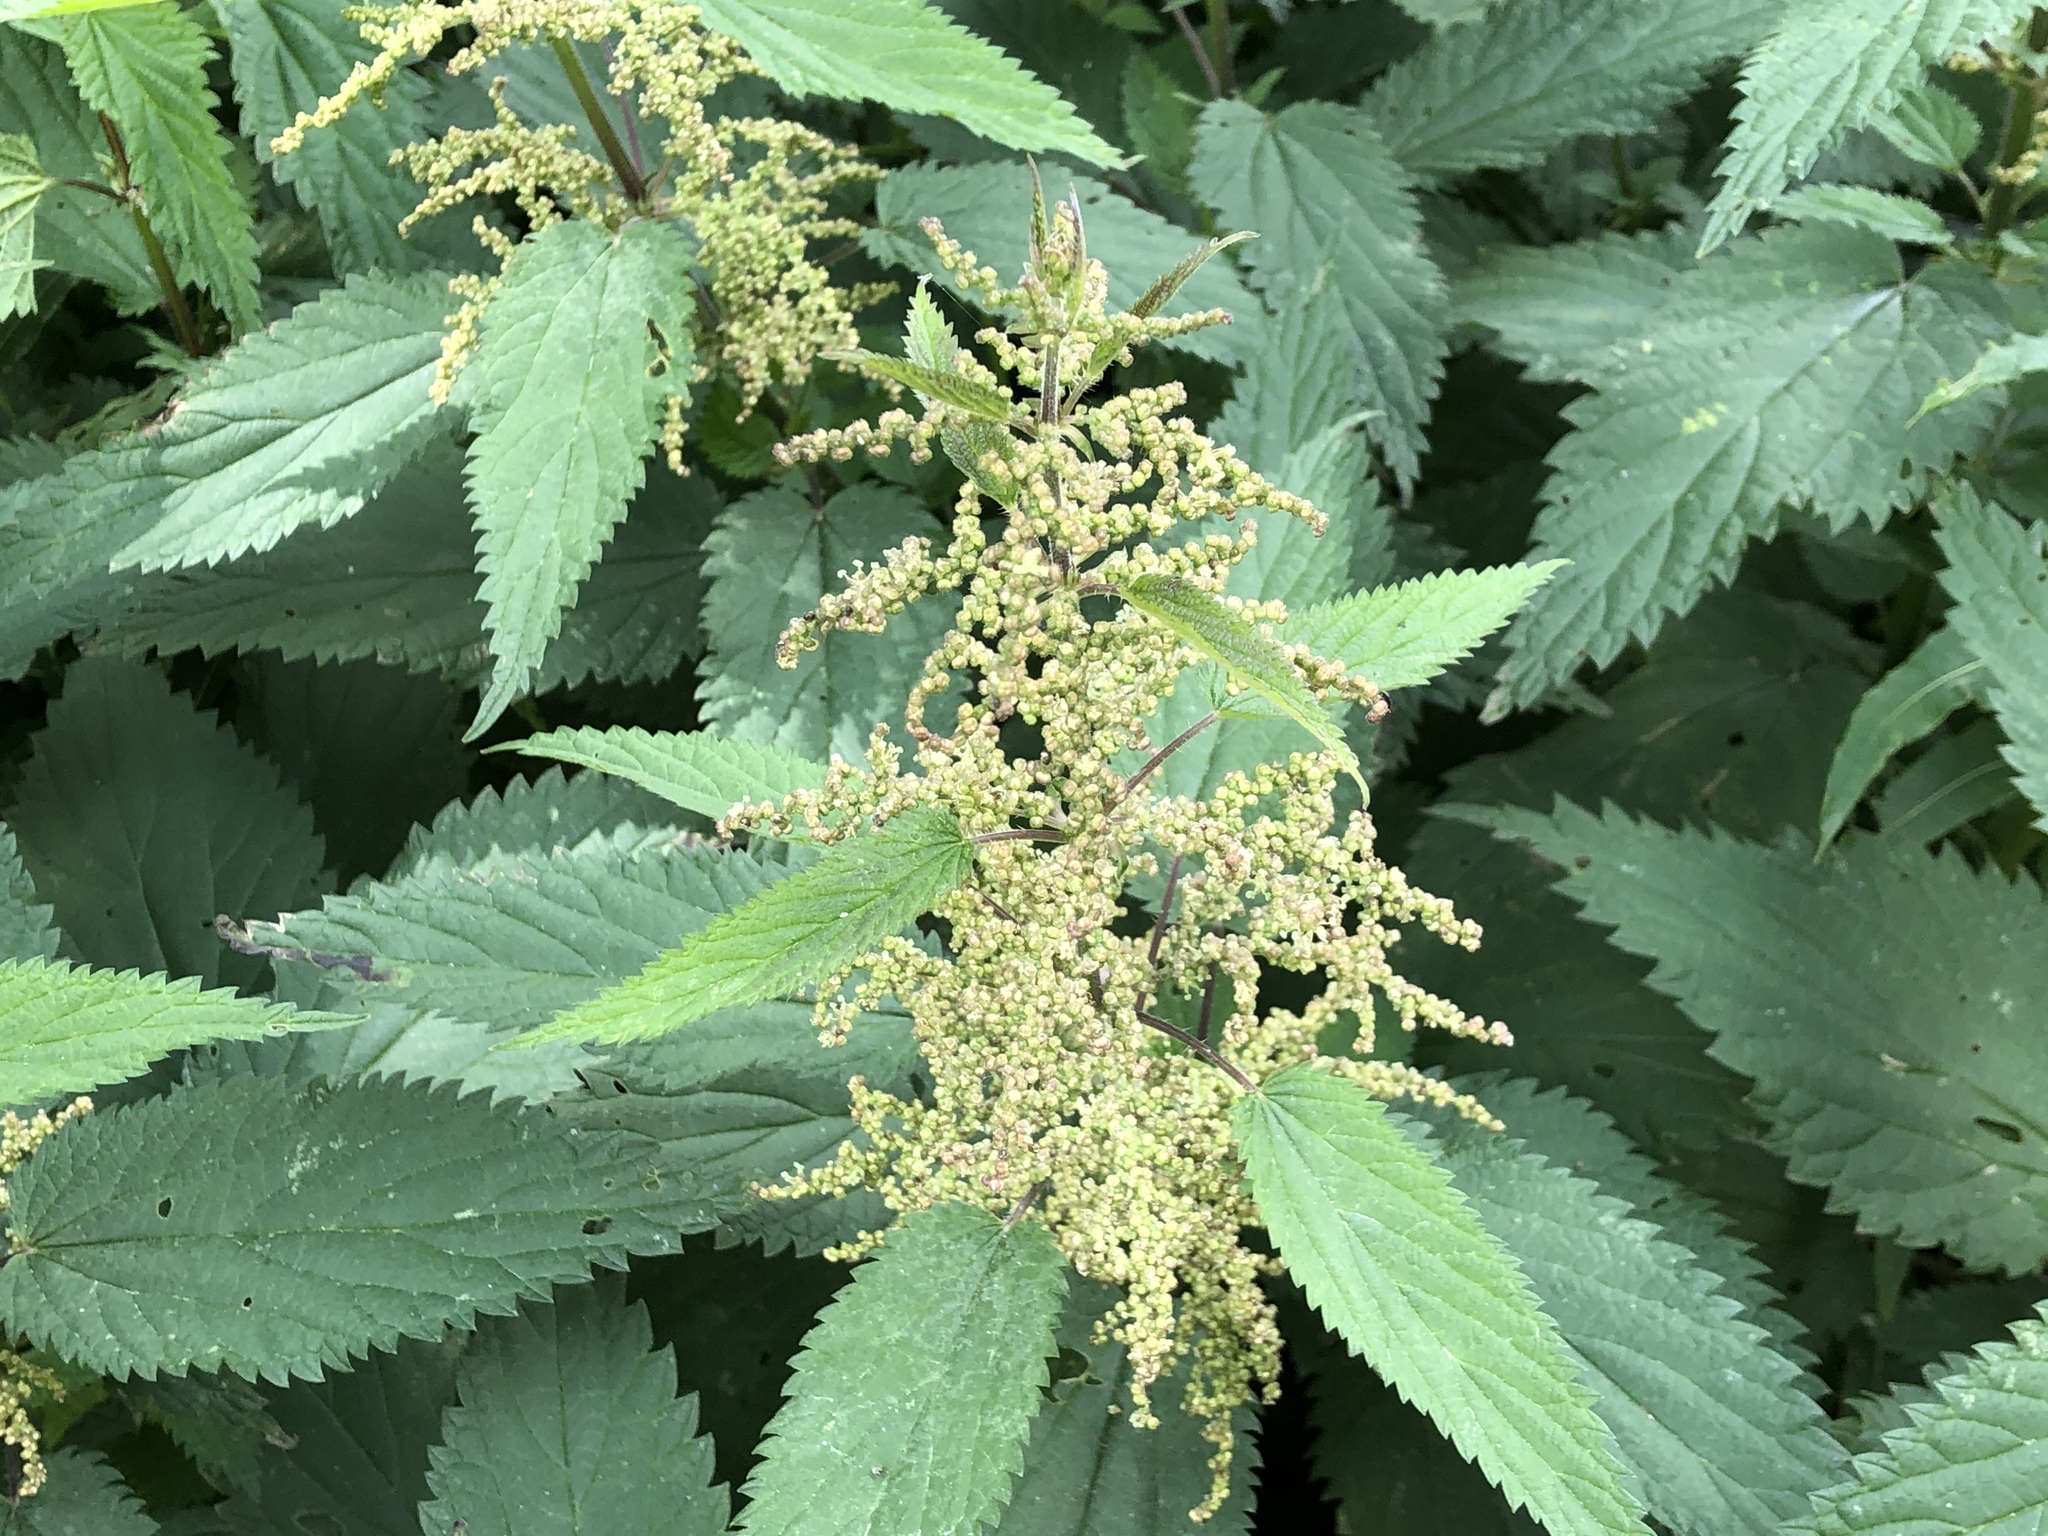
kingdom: Plantae
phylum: Tracheophyta
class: Magnoliopsida
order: Rosales
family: Urticaceae
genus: Urtica
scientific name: Urtica dioica
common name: Common nettle
